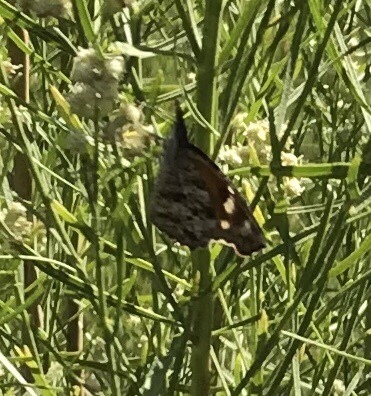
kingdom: Animalia
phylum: Arthropoda
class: Insecta
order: Lepidoptera
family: Nymphalidae
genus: Libytheana
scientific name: Libytheana carinenta
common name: American snout
